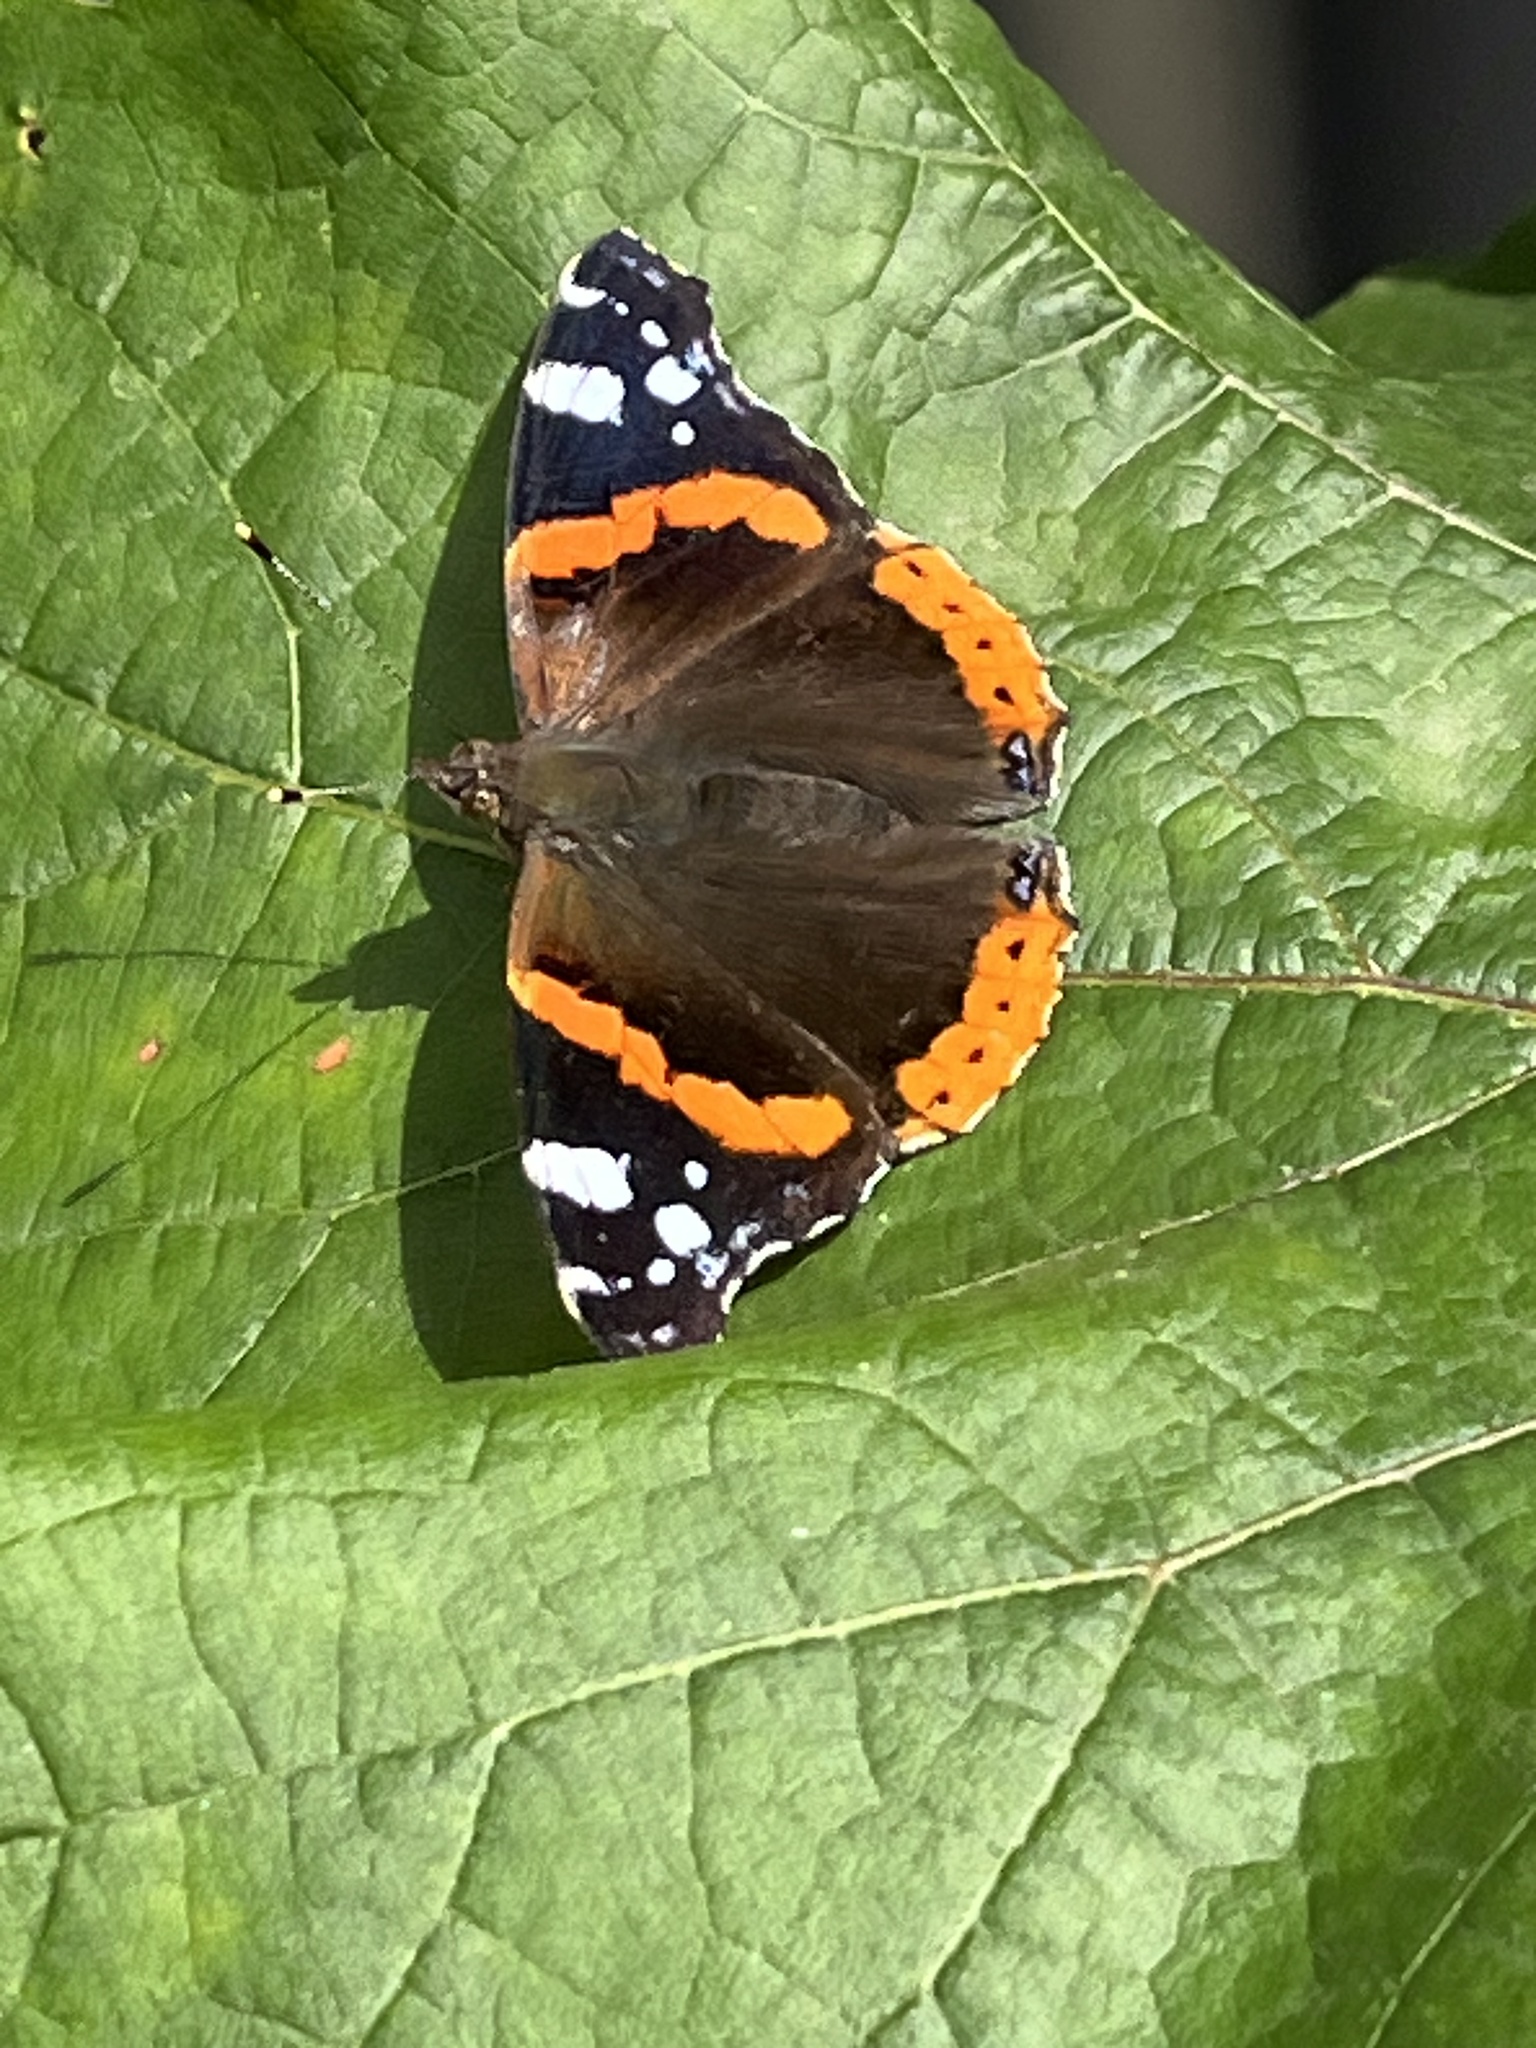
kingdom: Animalia
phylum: Arthropoda
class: Insecta
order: Lepidoptera
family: Nymphalidae
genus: Vanessa
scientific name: Vanessa atalanta
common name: Red admiral
